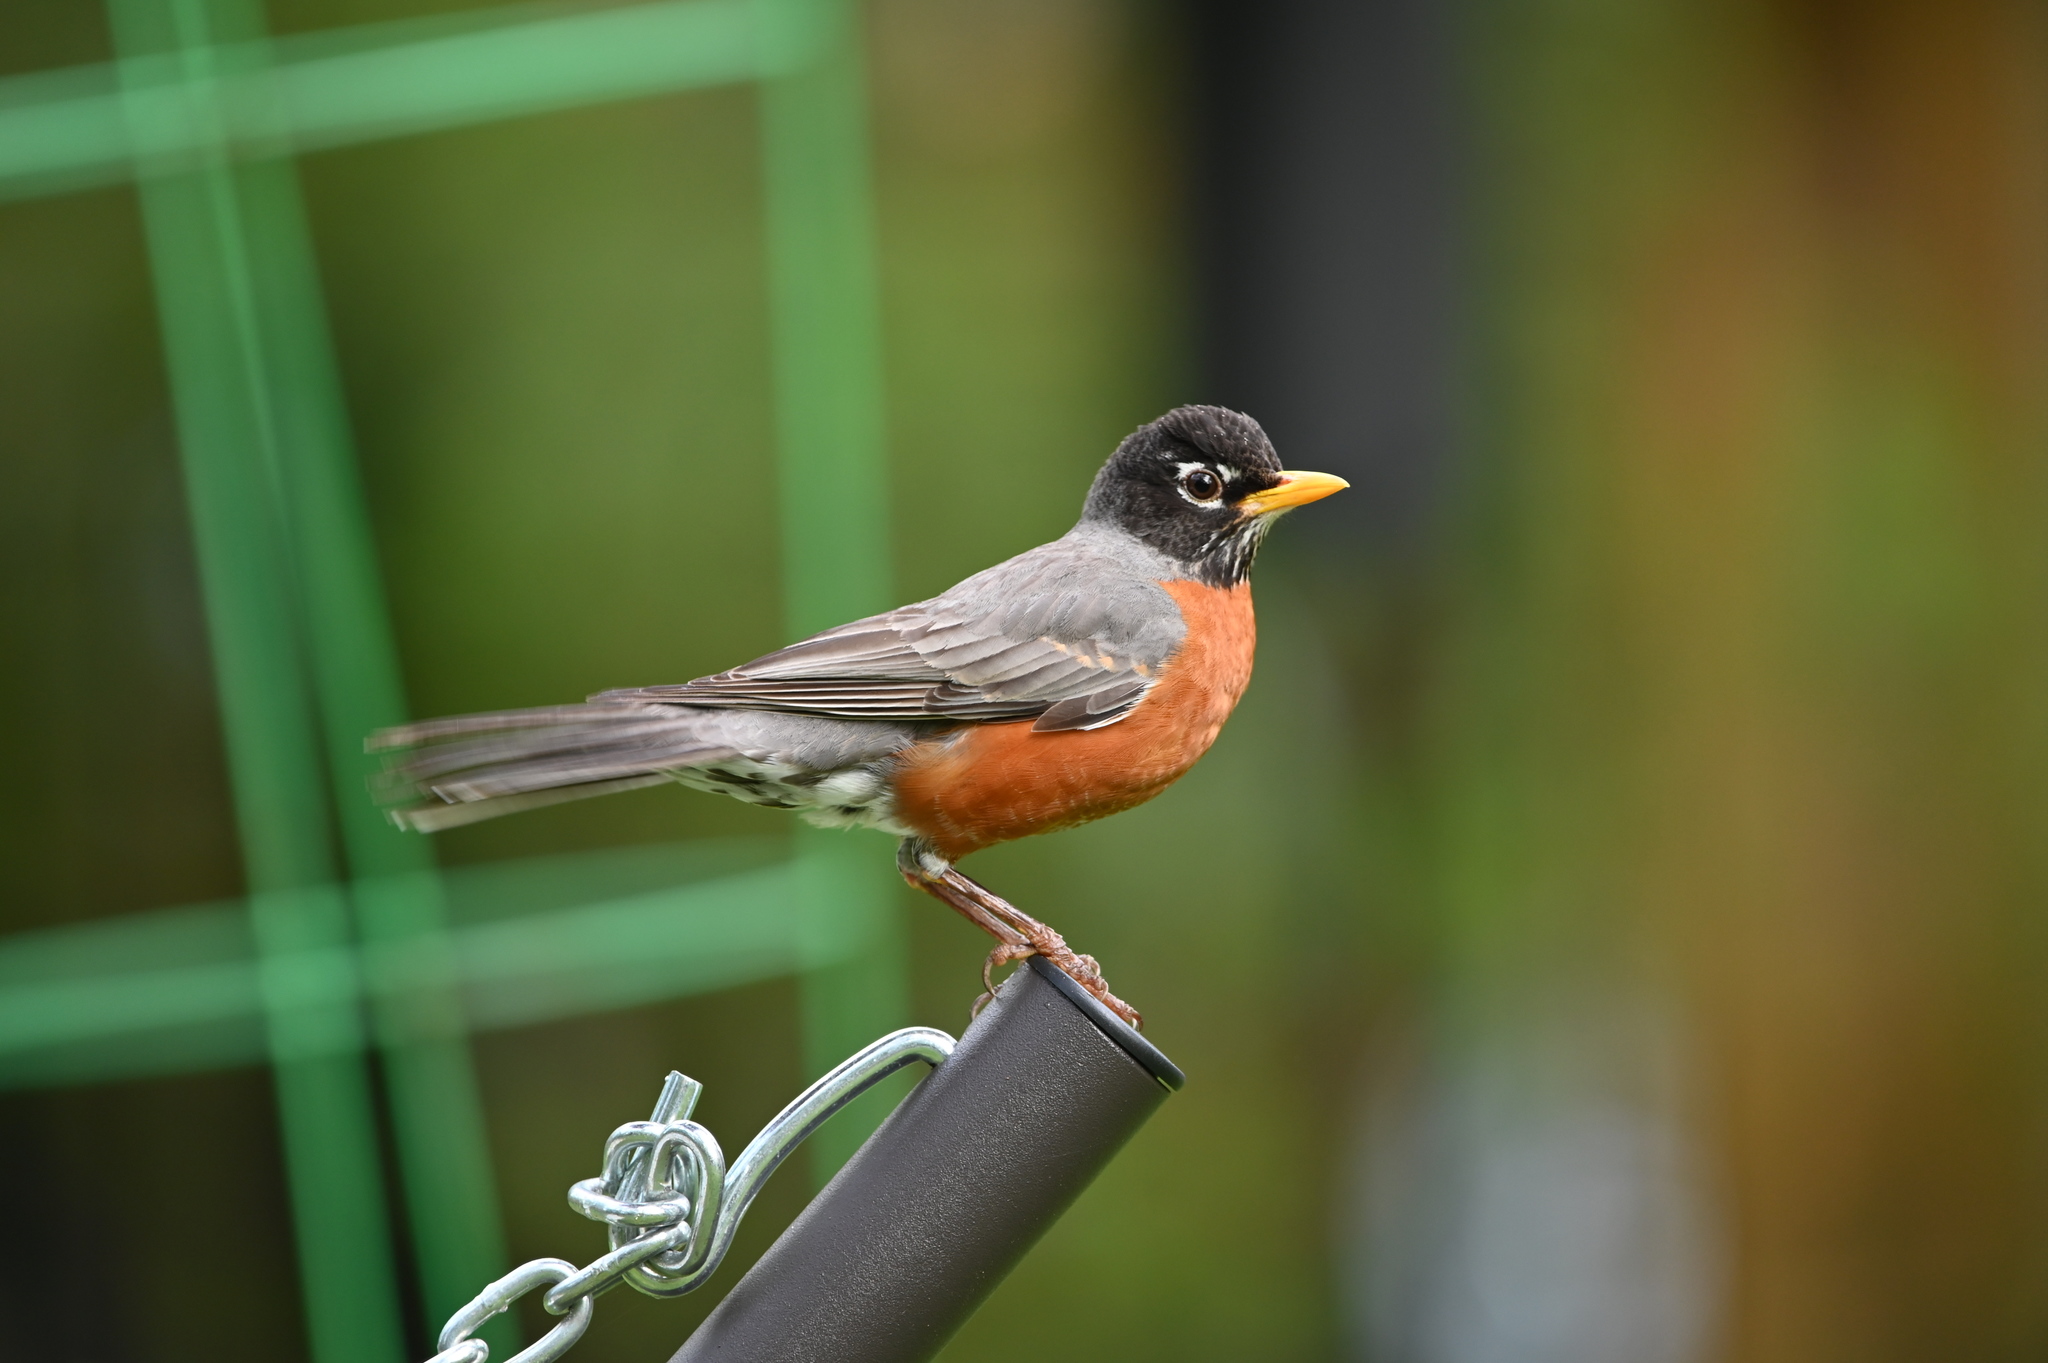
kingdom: Animalia
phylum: Chordata
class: Aves
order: Passeriformes
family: Turdidae
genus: Turdus
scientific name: Turdus migratorius
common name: American robin
